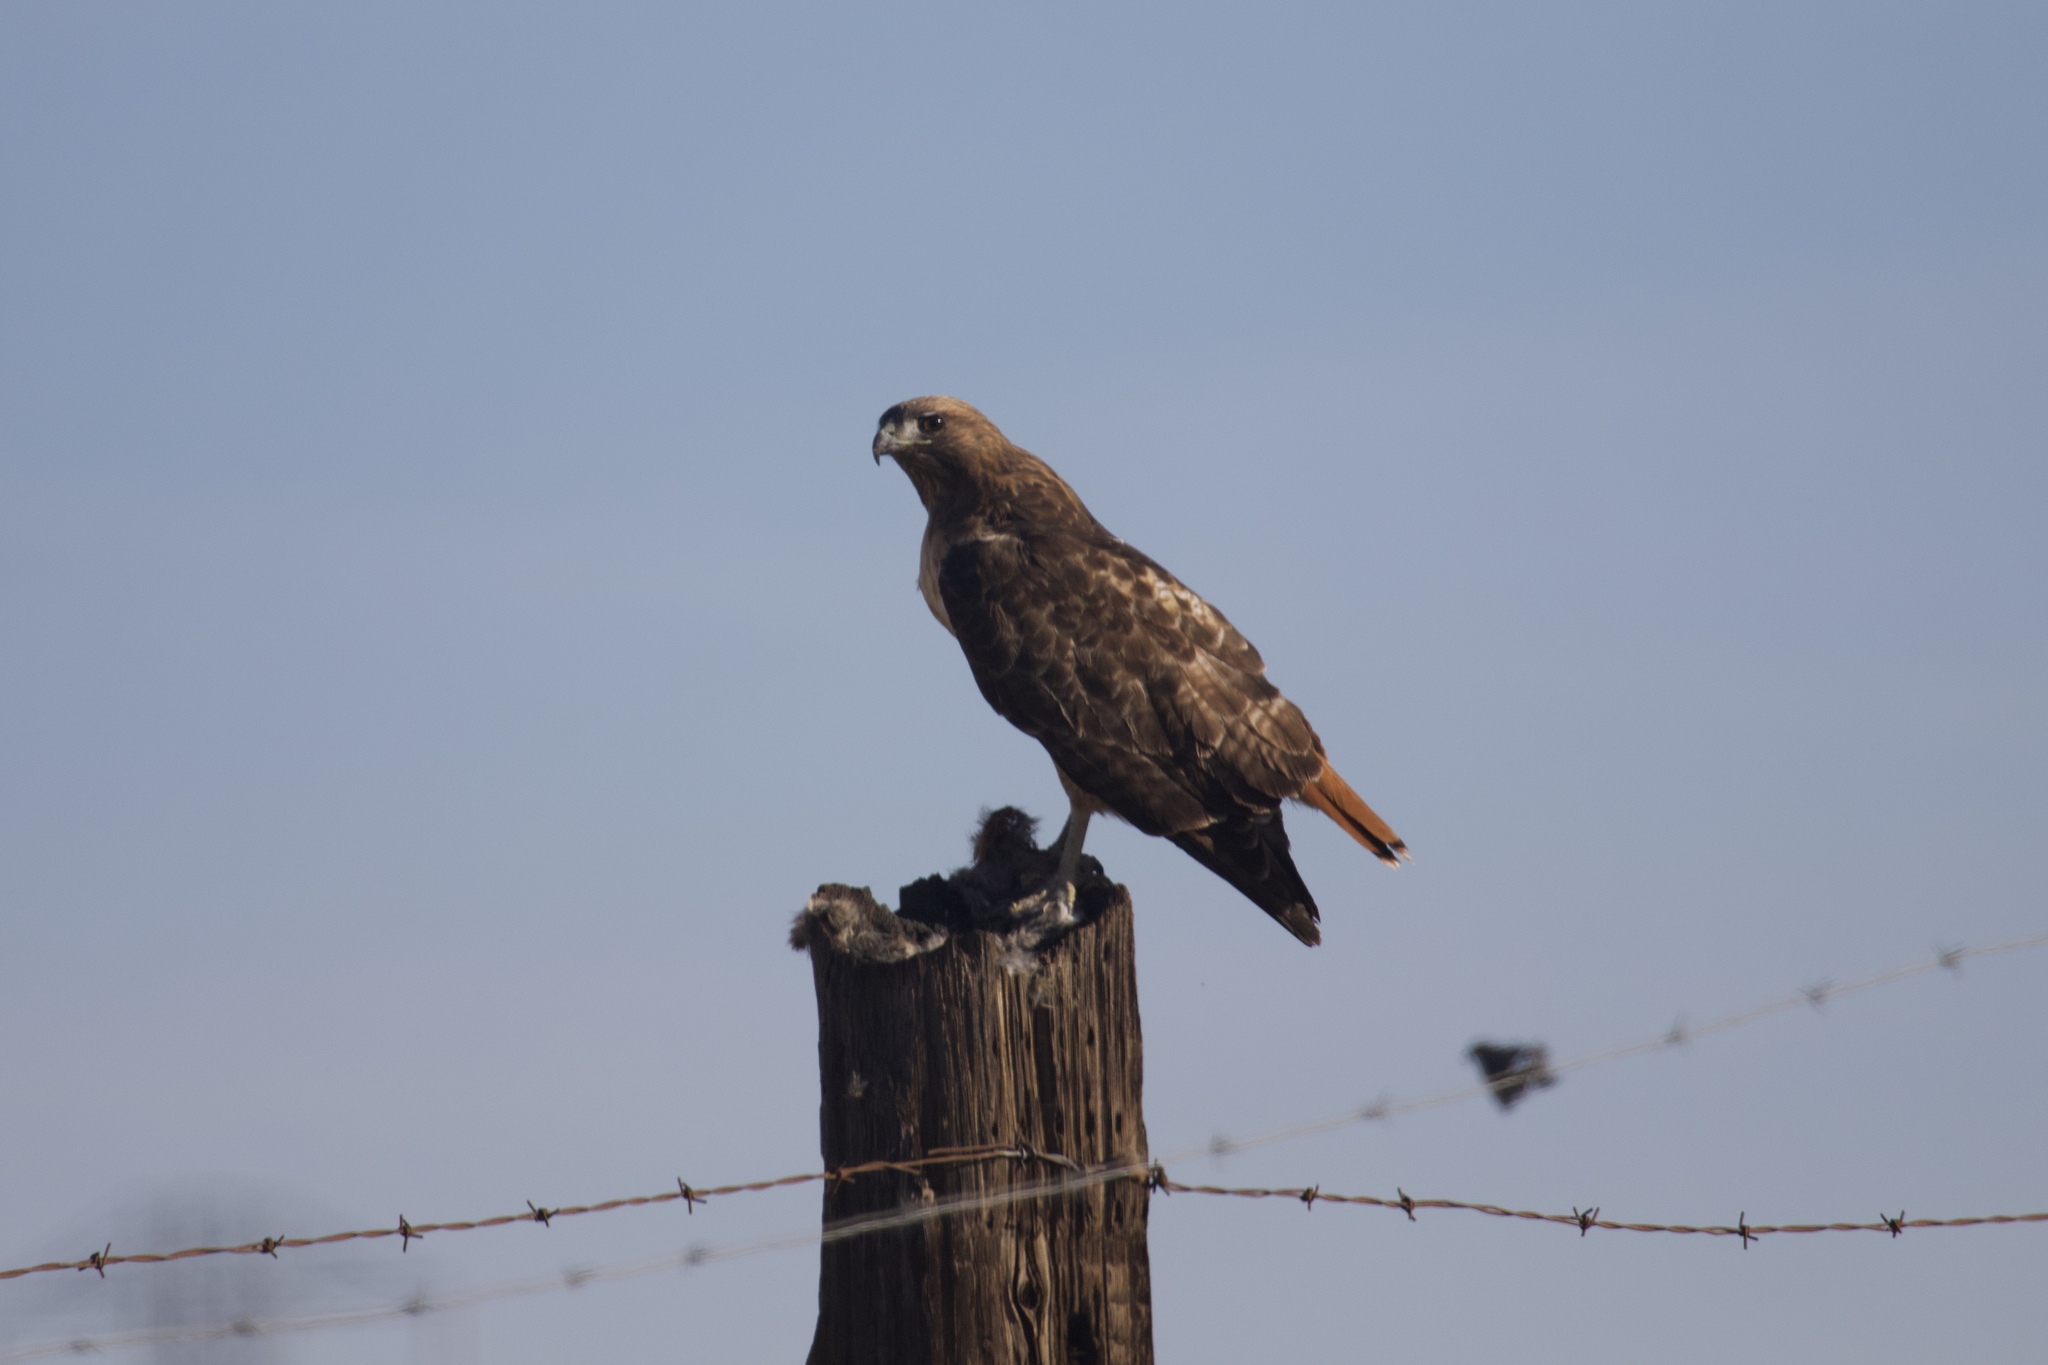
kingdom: Animalia
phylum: Chordata
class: Aves
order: Accipitriformes
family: Accipitridae
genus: Buteo
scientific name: Buteo jamaicensis
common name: Red-tailed hawk
